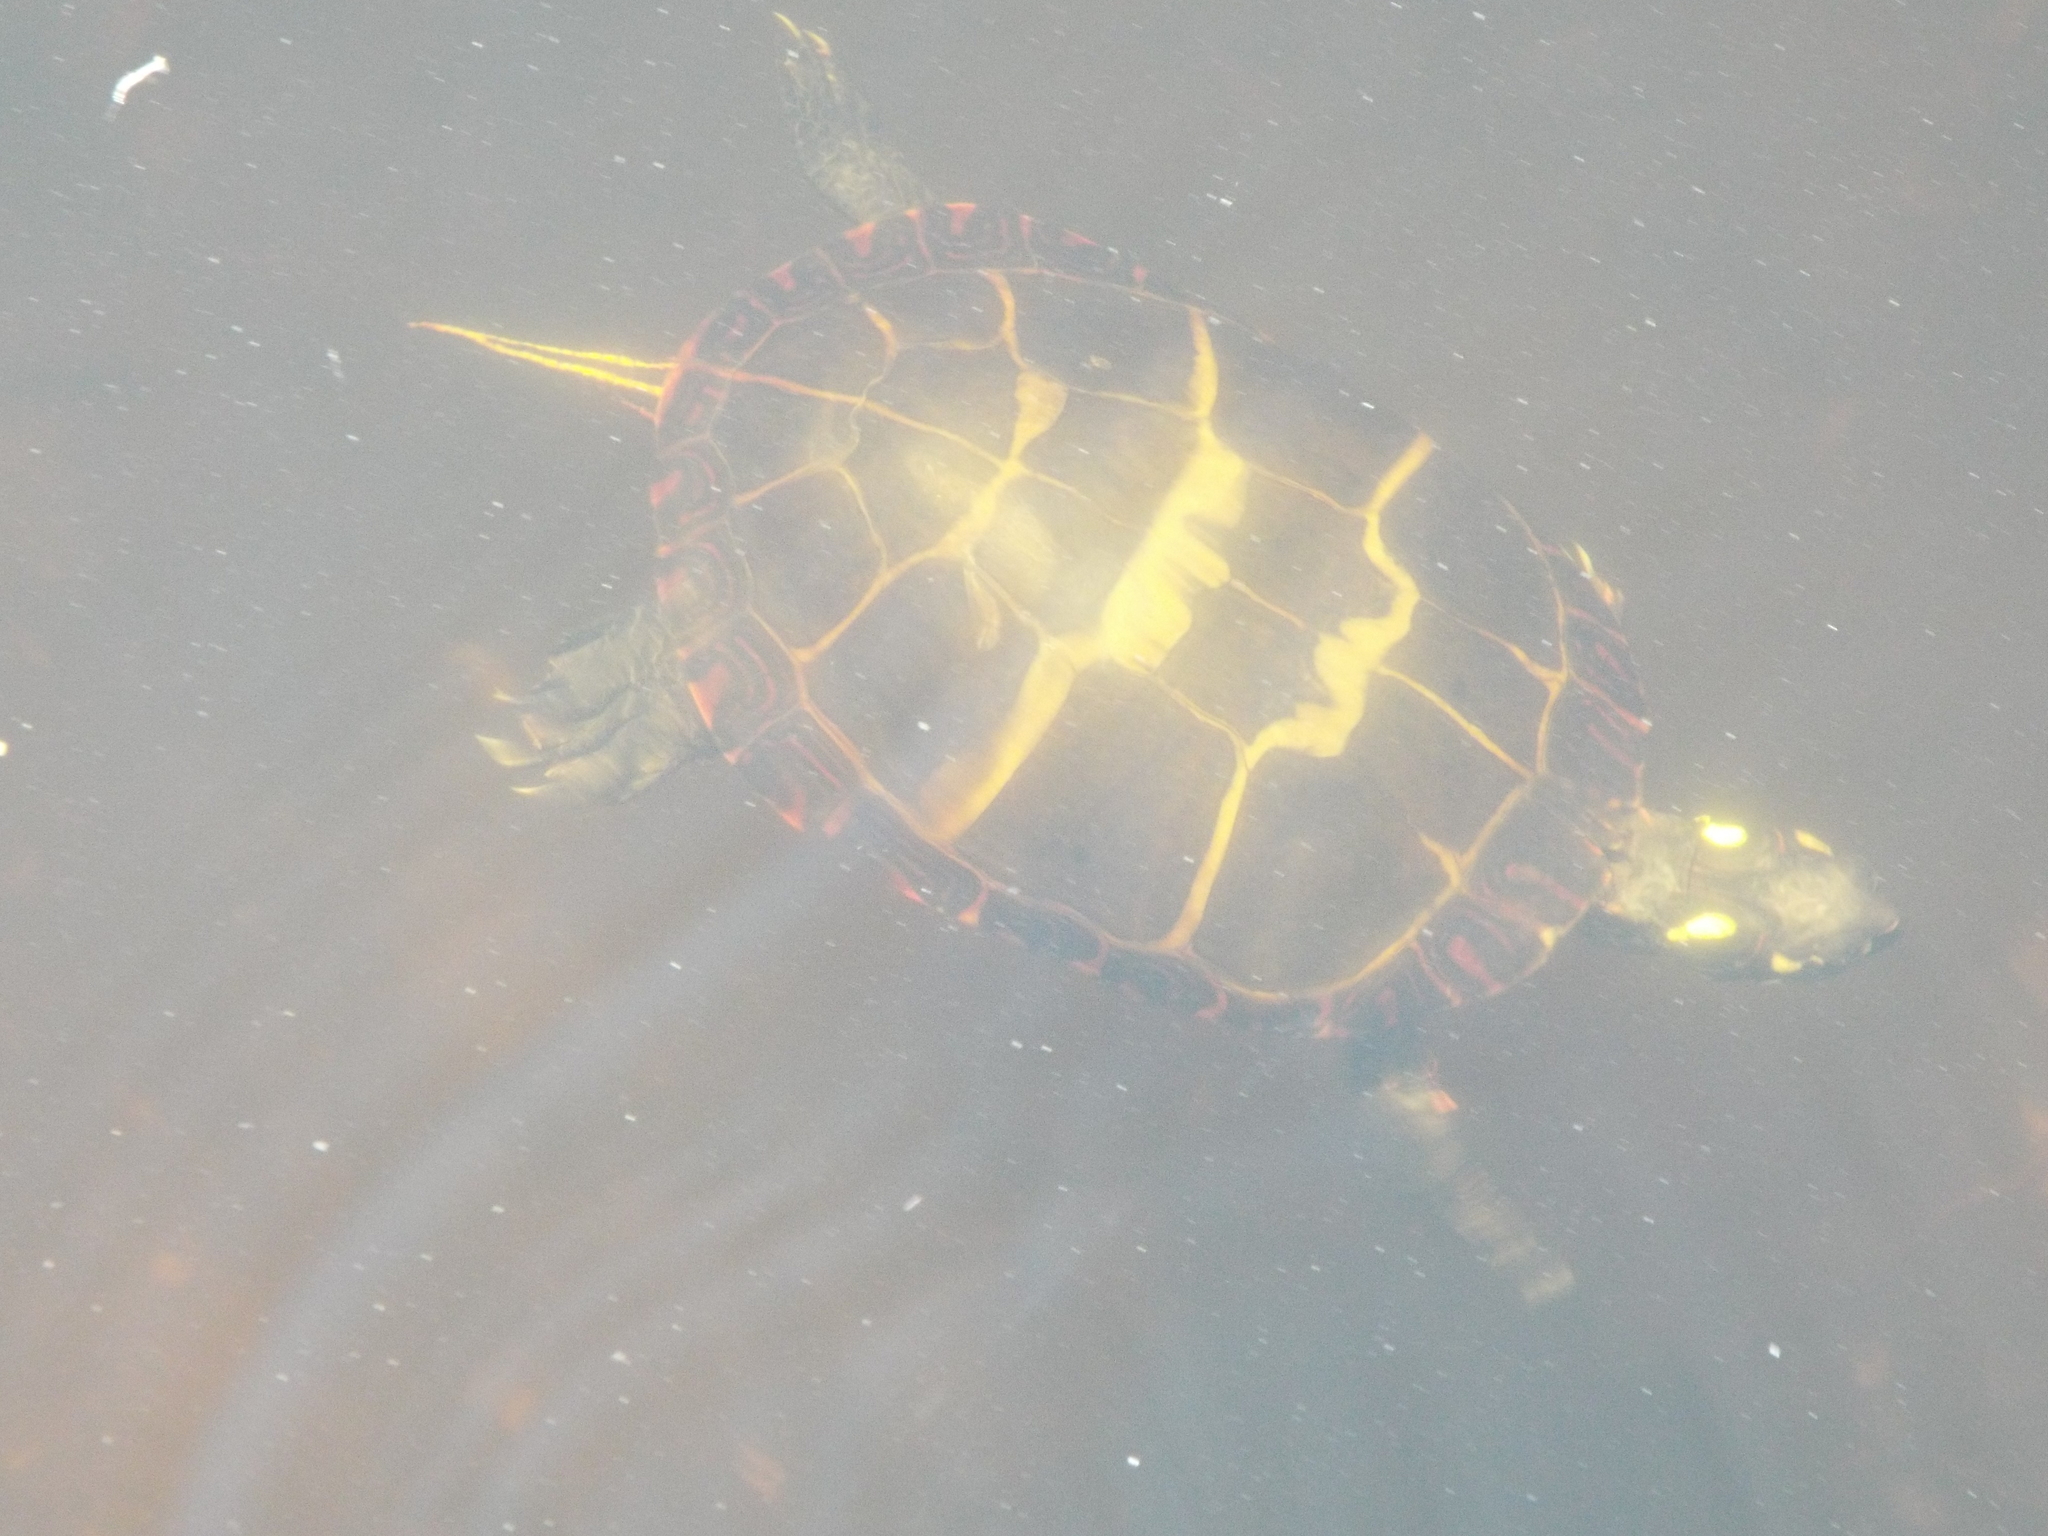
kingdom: Animalia
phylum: Chordata
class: Testudines
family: Emydidae
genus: Chrysemys
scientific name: Chrysemys picta
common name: Painted turtle
